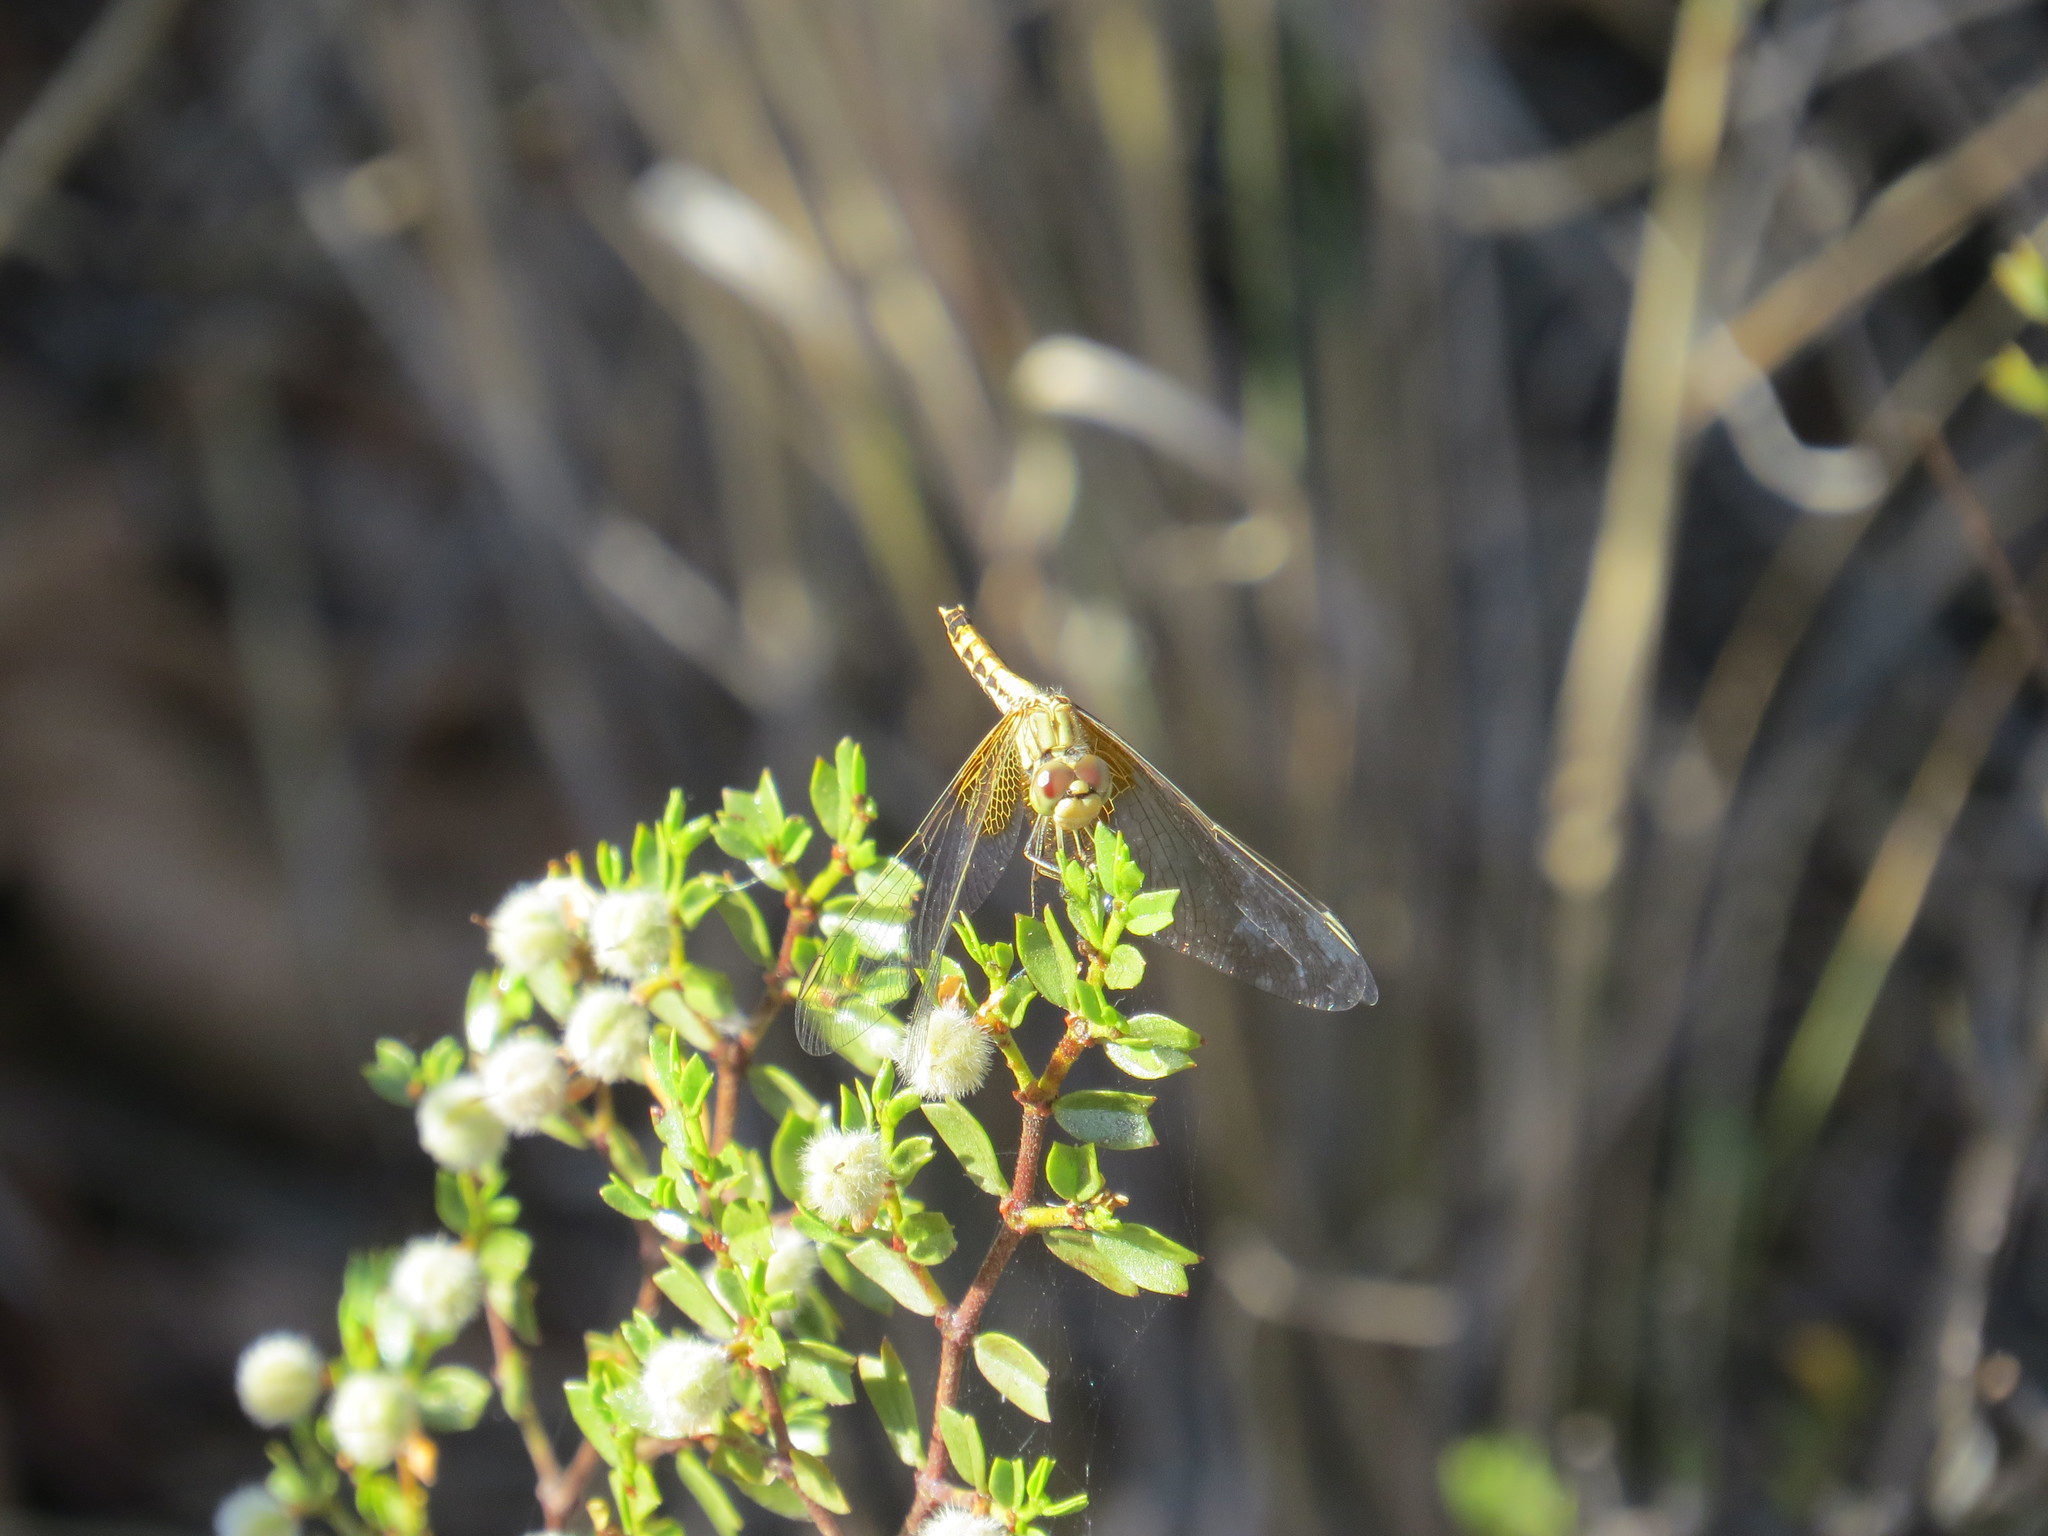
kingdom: Animalia
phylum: Arthropoda
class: Insecta
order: Odonata
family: Libellulidae
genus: Erythrodiplax
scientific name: Erythrodiplax corallina
